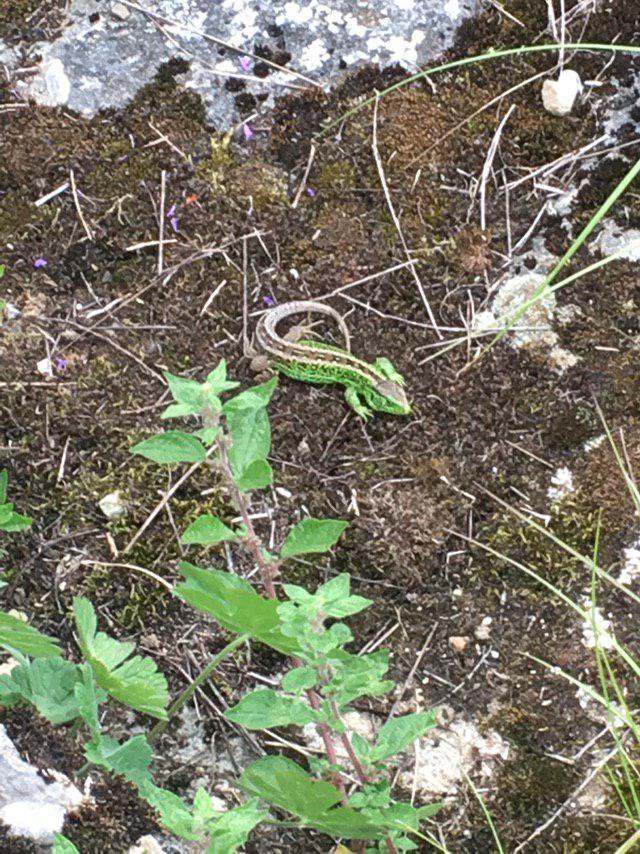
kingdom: Animalia
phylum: Chordata
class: Squamata
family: Lacertidae
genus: Lacerta
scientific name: Lacerta agilis
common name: Sand lizard
